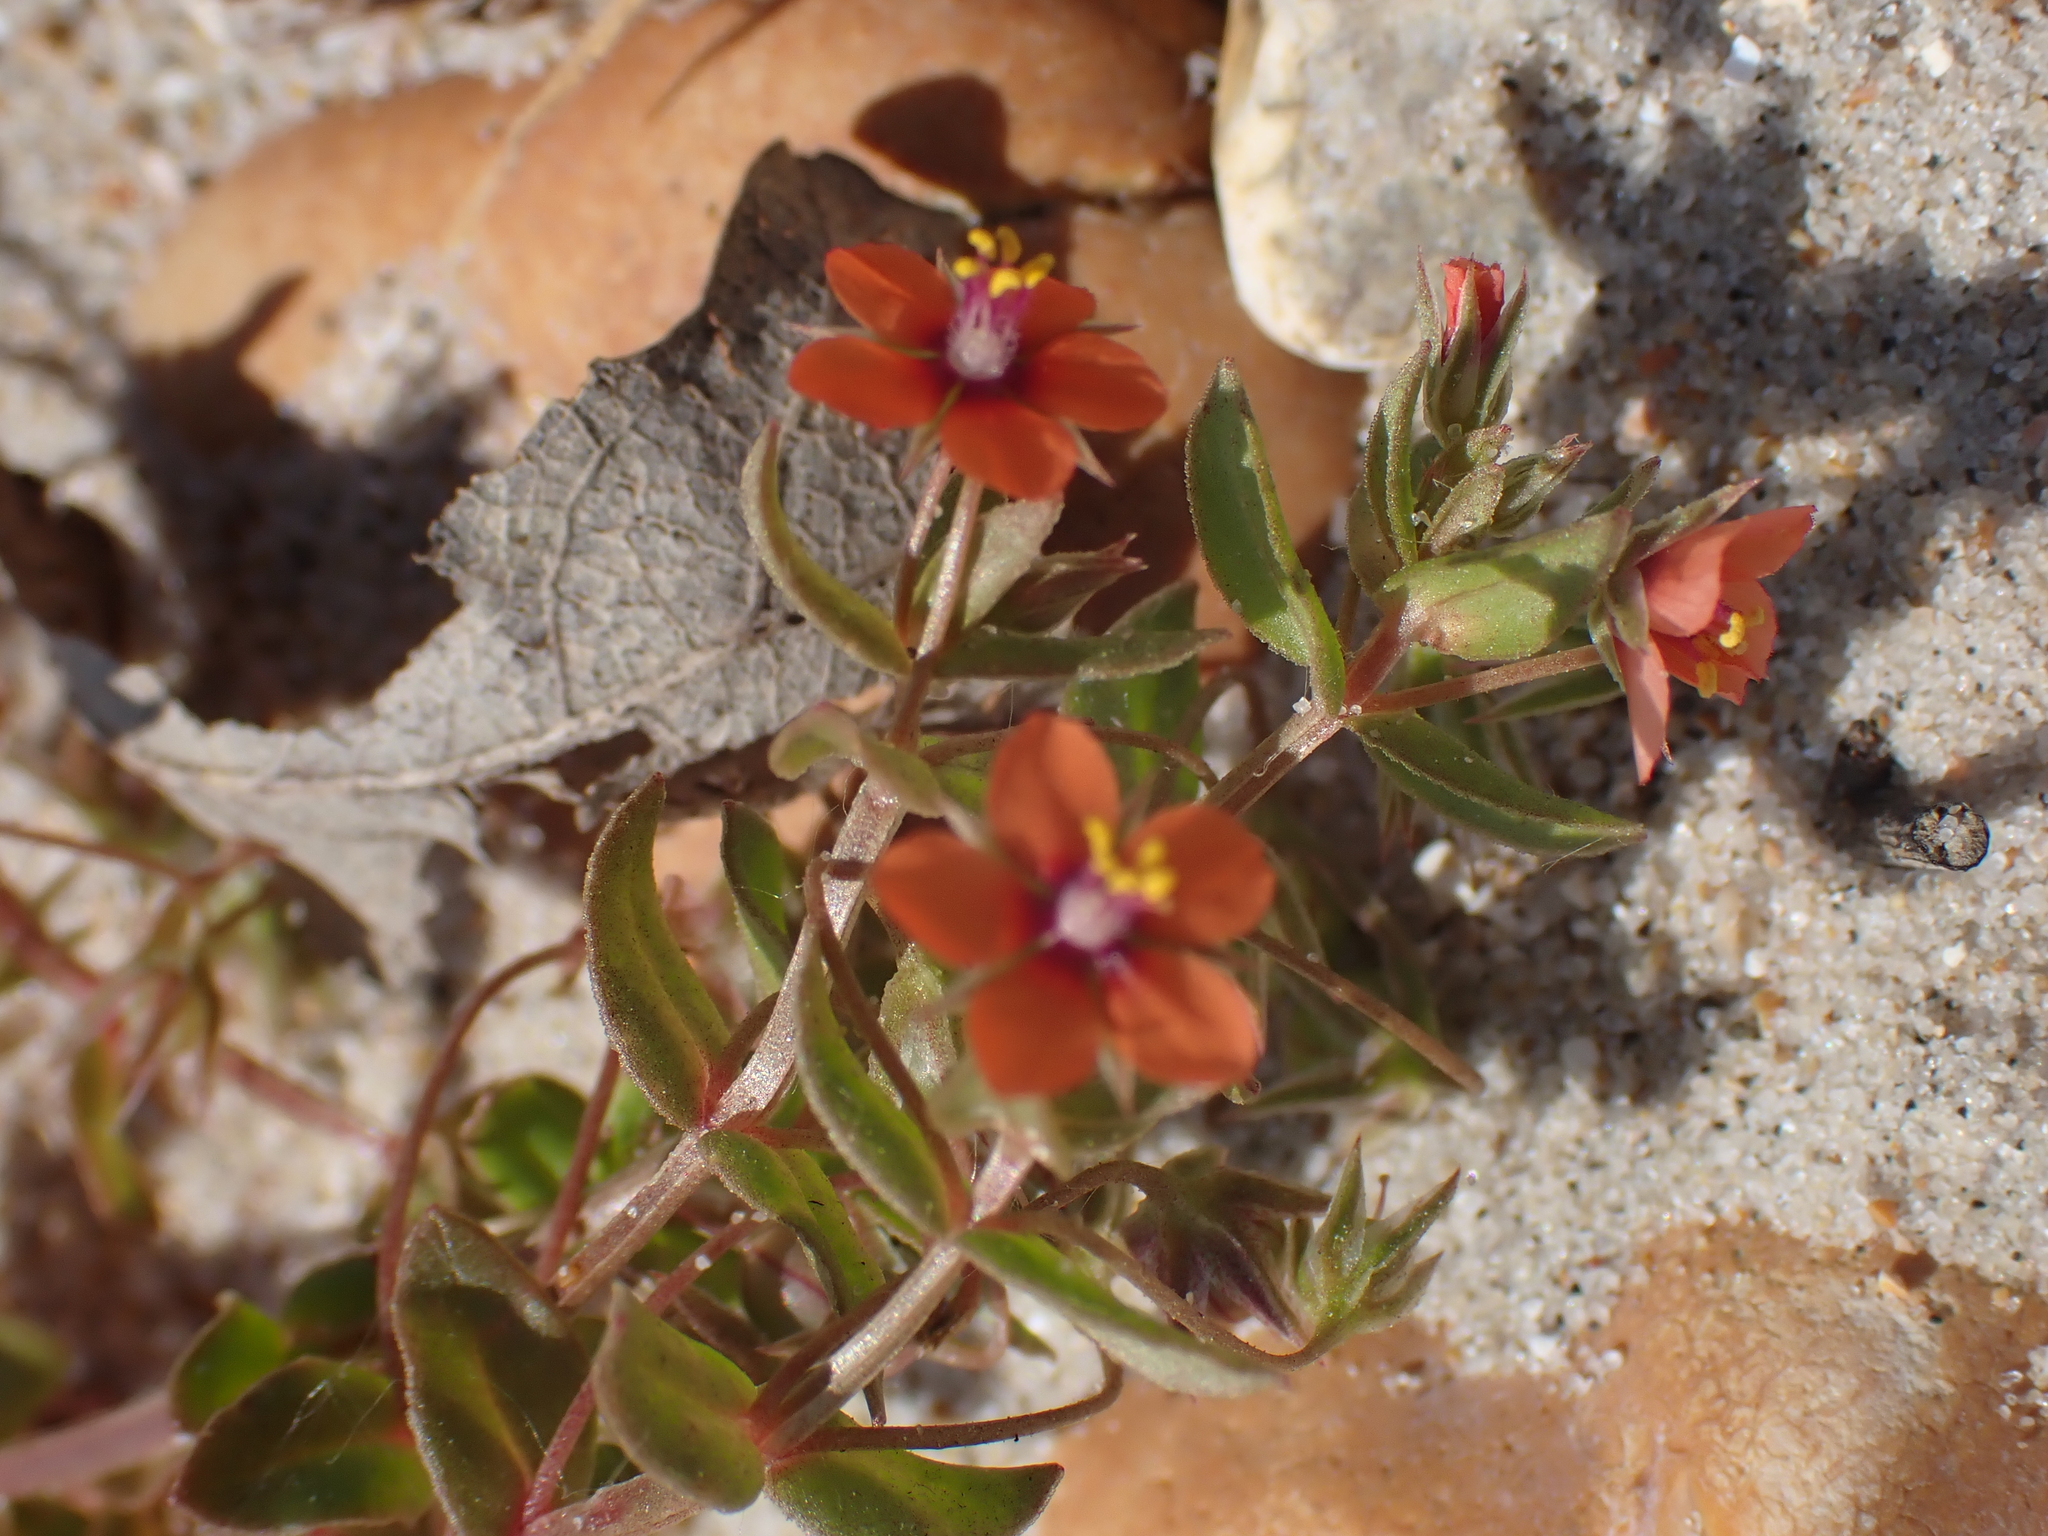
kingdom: Plantae
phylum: Tracheophyta
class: Magnoliopsida
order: Ericales
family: Primulaceae
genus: Lysimachia
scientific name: Lysimachia arvensis
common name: Scarlet pimpernel
